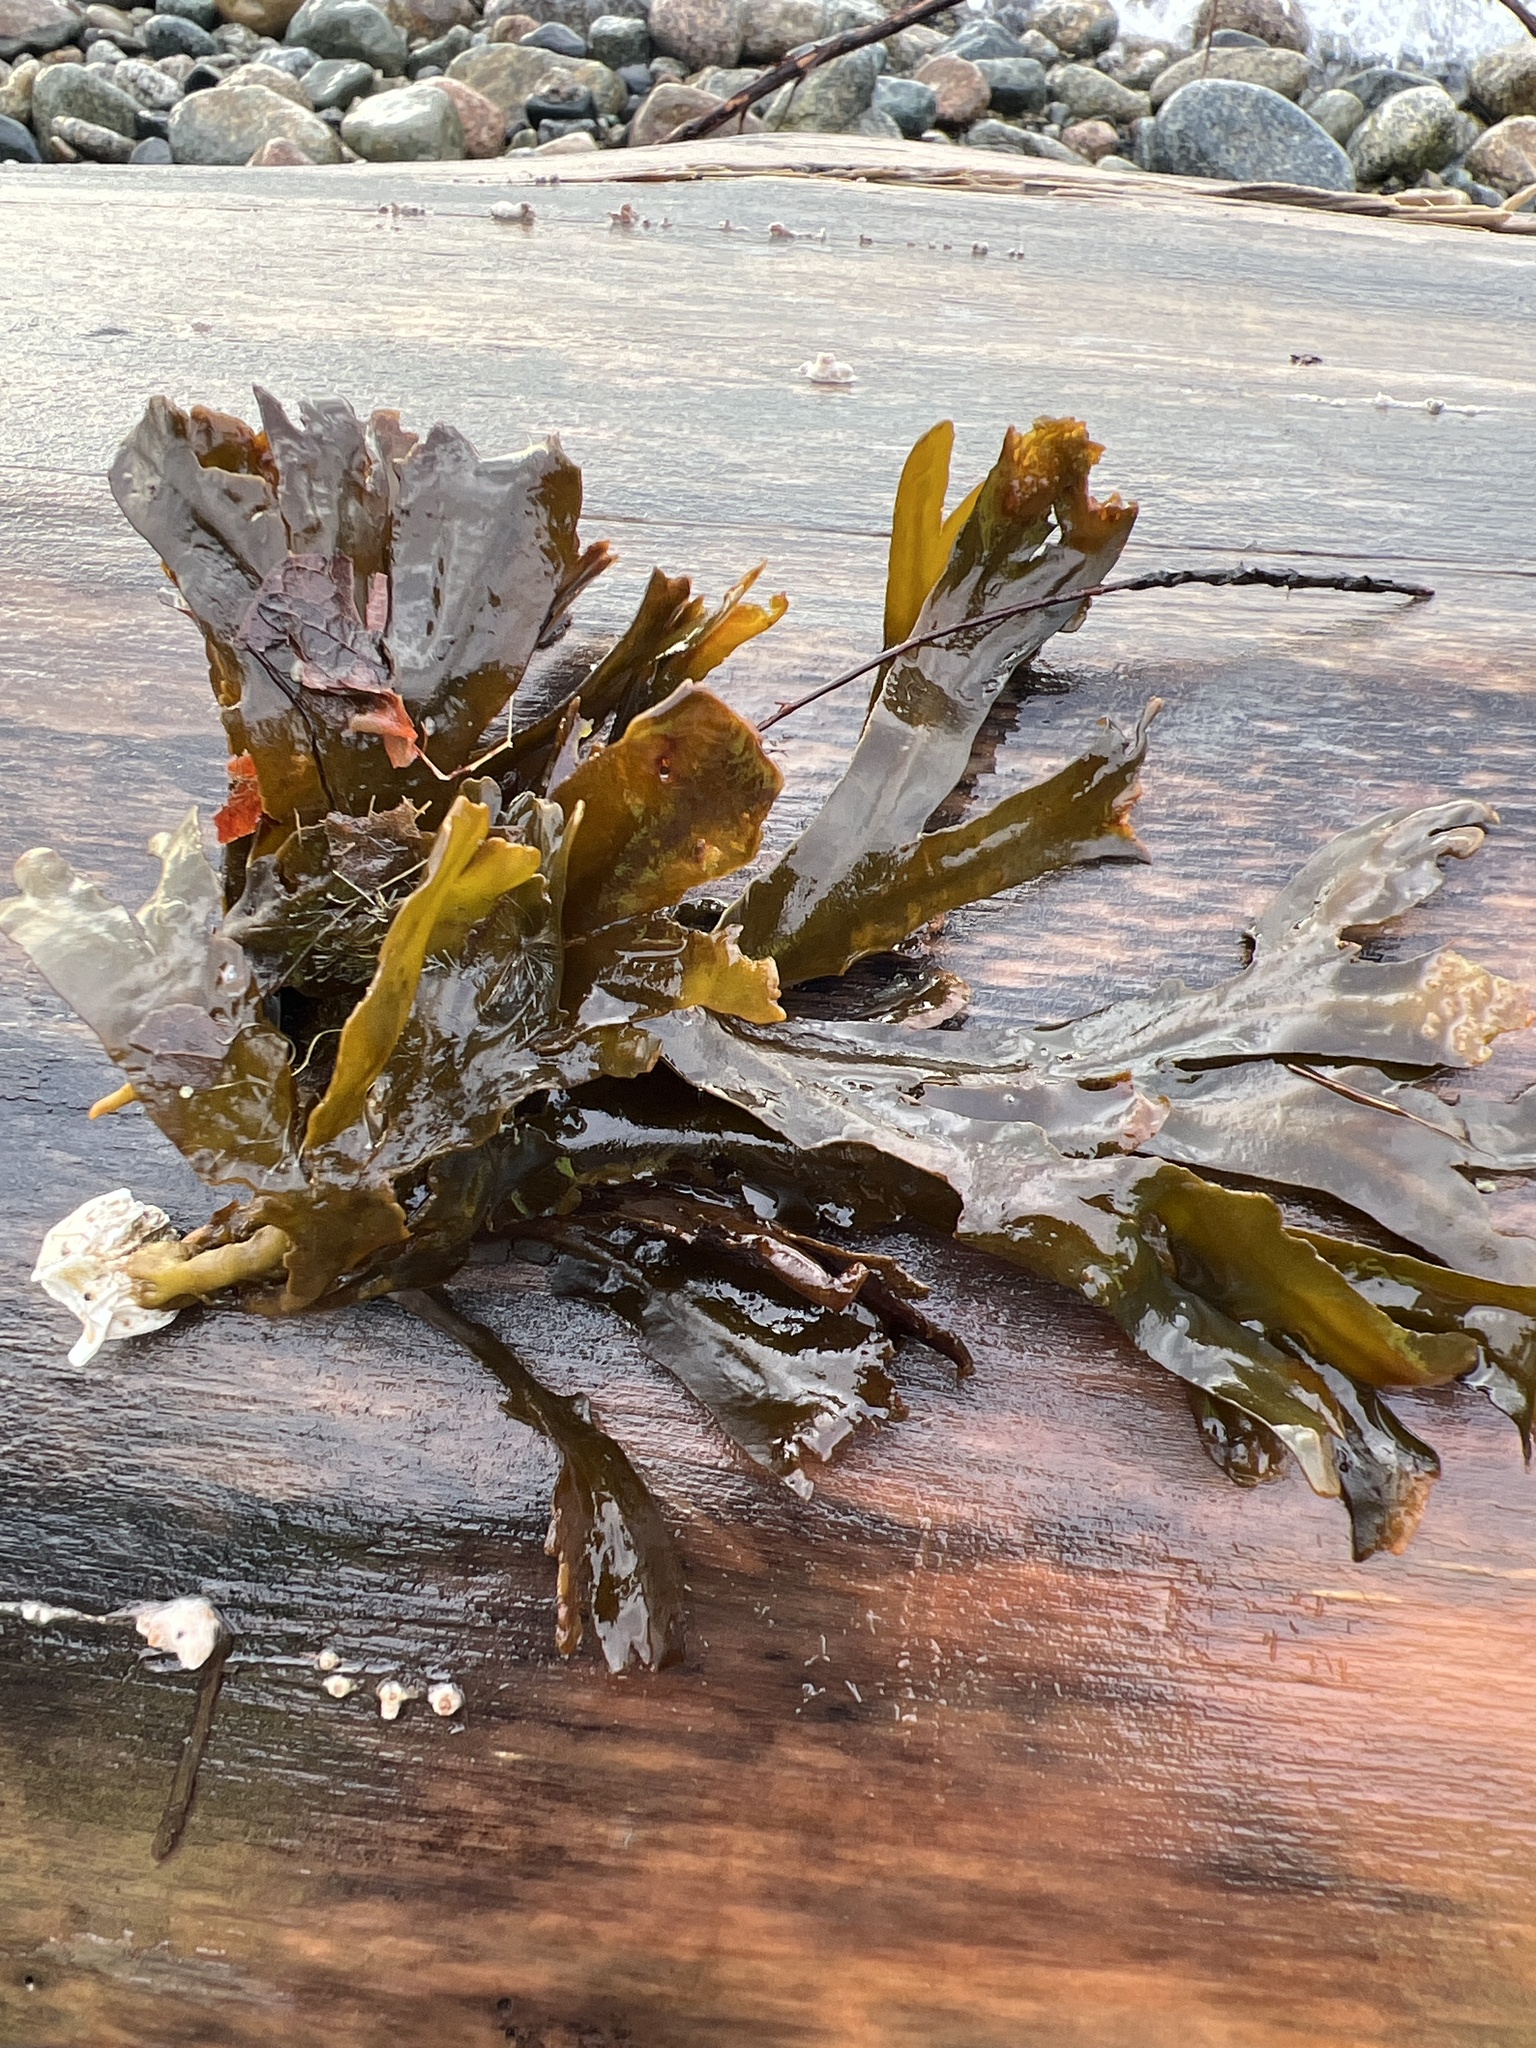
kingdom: Chromista
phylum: Ochrophyta
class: Phaeophyceae
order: Fucales
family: Fucaceae
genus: Fucus
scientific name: Fucus distichus
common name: Rockweed
